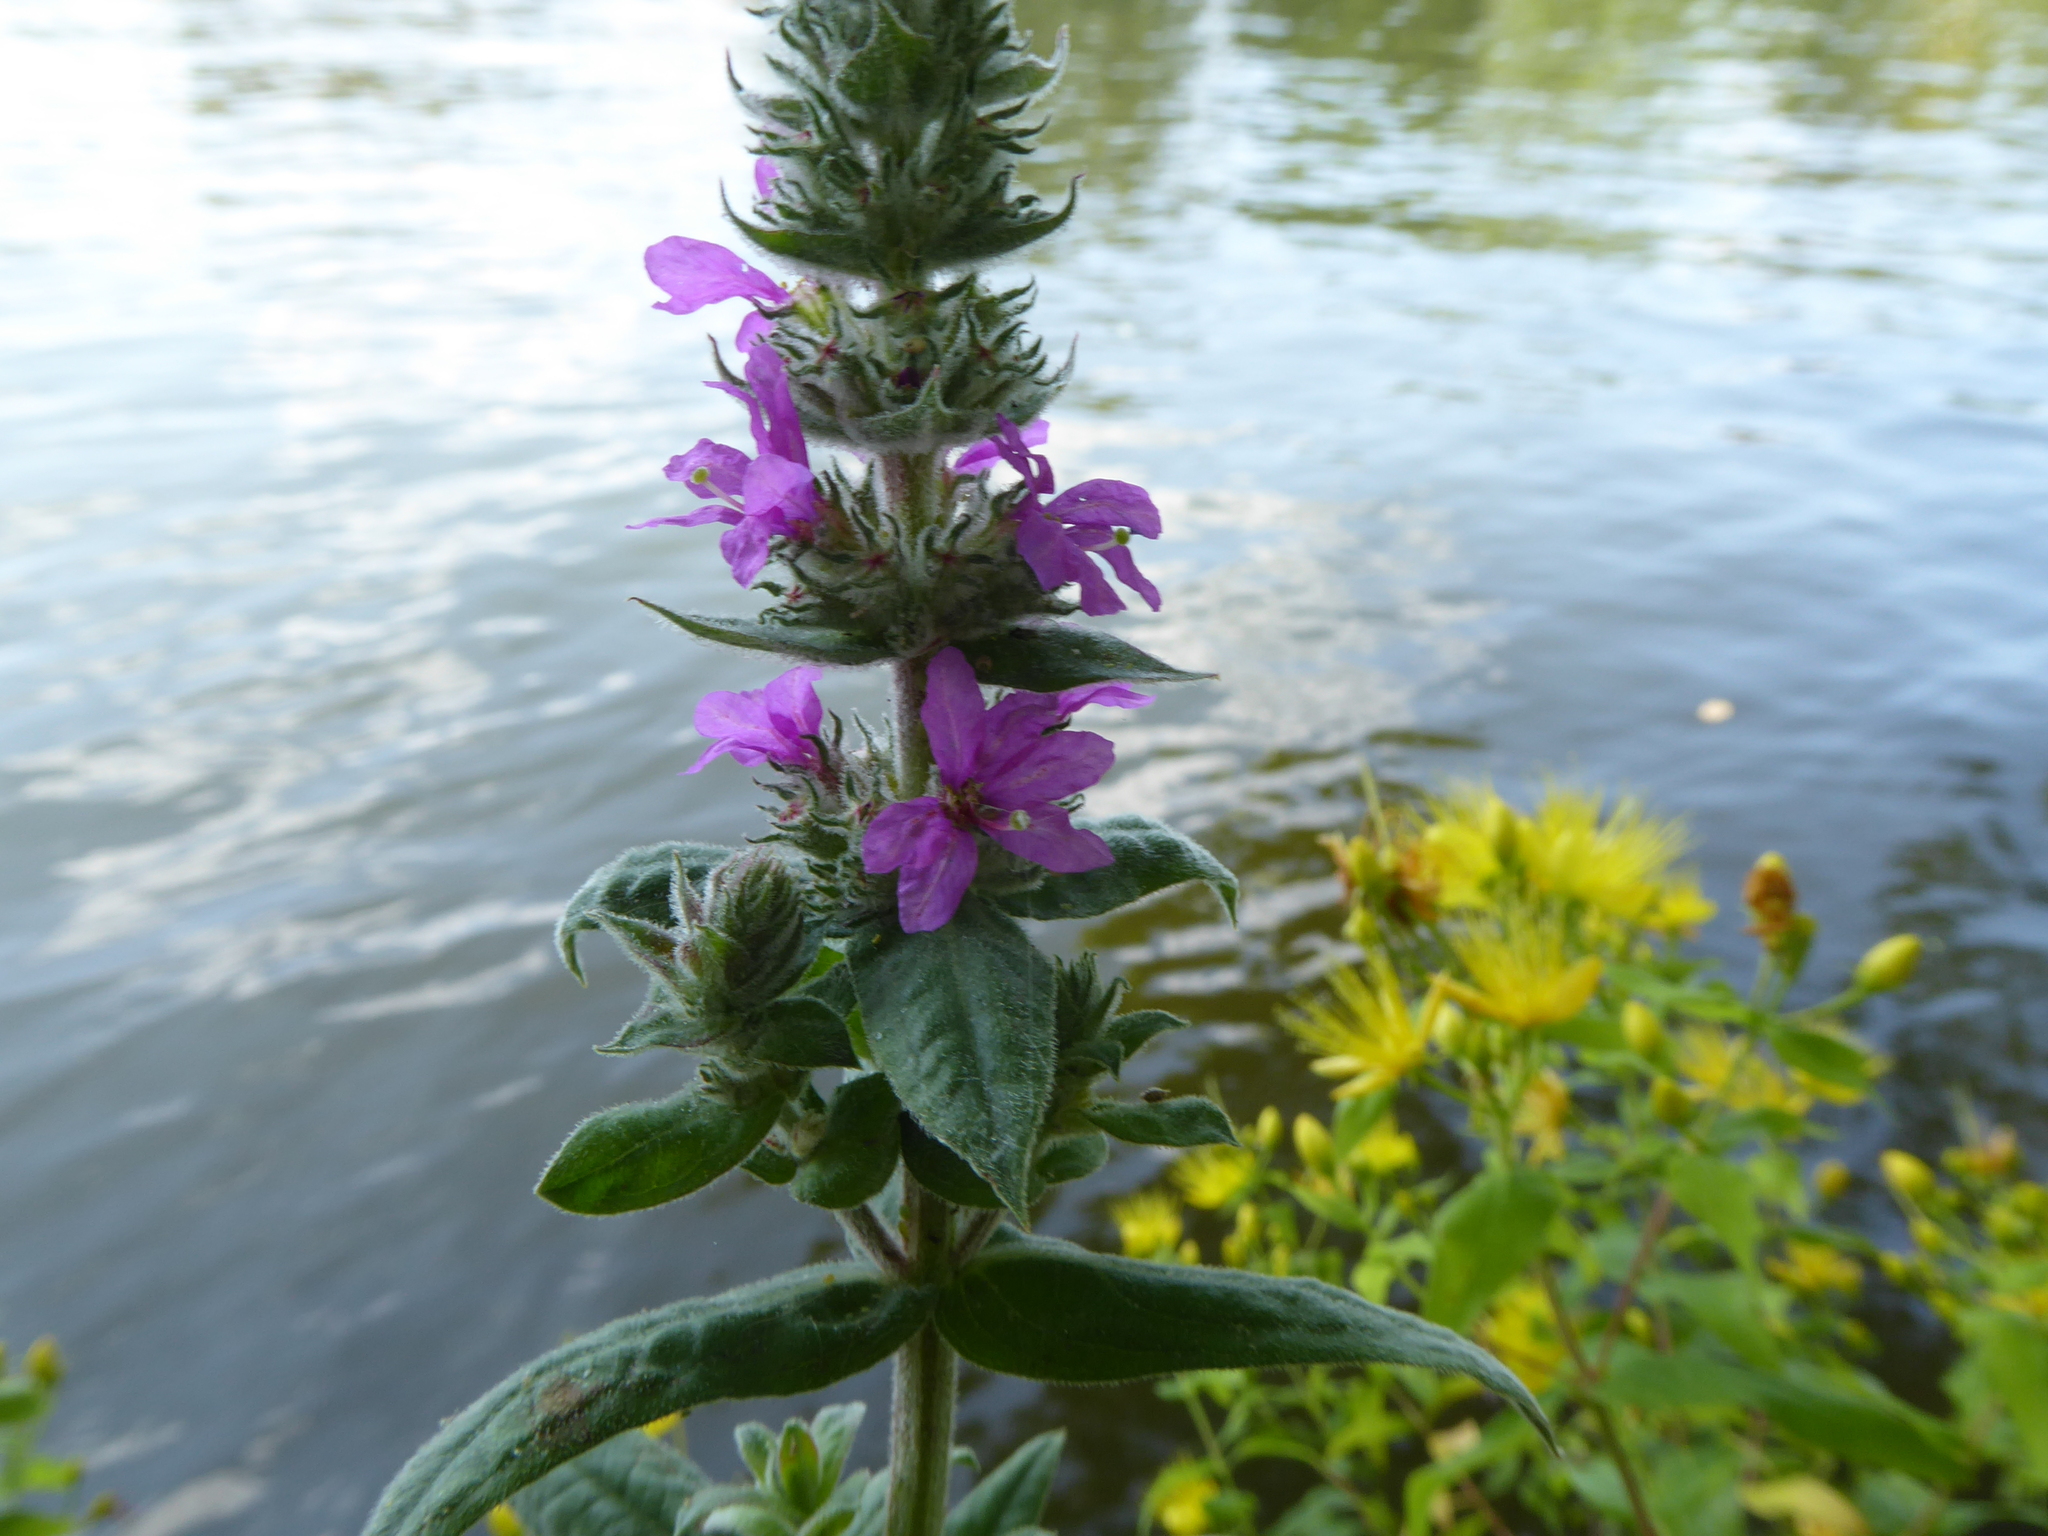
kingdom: Plantae
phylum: Tracheophyta
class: Magnoliopsida
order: Myrtales
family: Lythraceae
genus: Lythrum
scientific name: Lythrum salicaria
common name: Purple loosestrife
